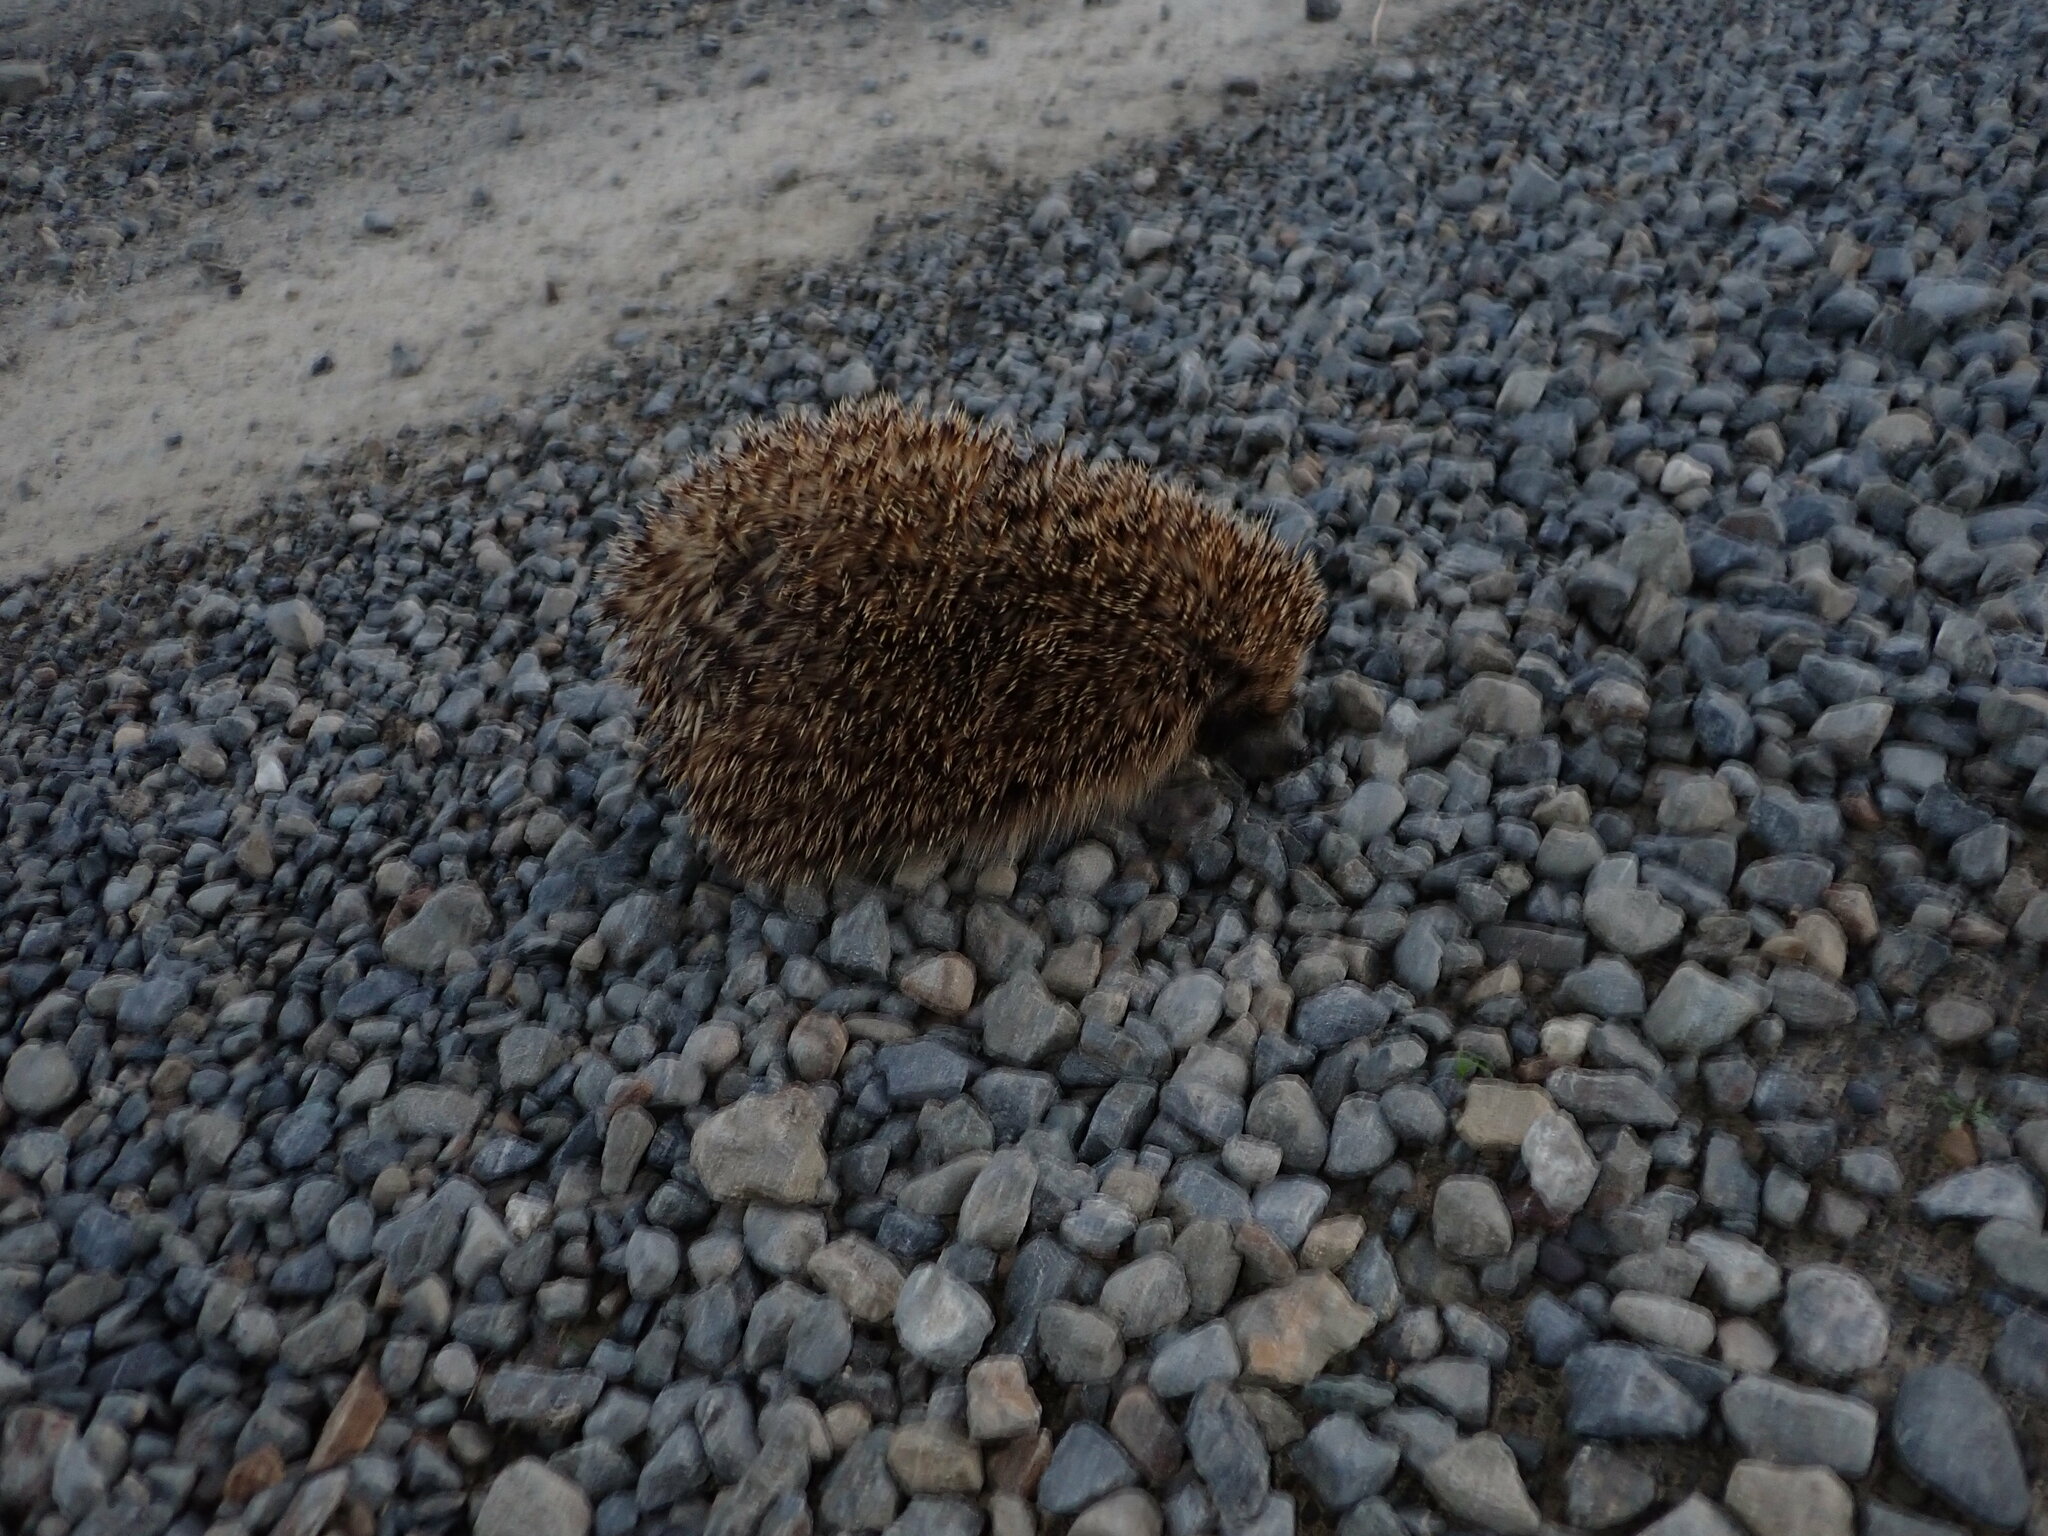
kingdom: Animalia
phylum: Chordata
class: Mammalia
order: Erinaceomorpha
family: Erinaceidae
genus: Erinaceus
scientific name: Erinaceus europaeus
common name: West european hedgehog
